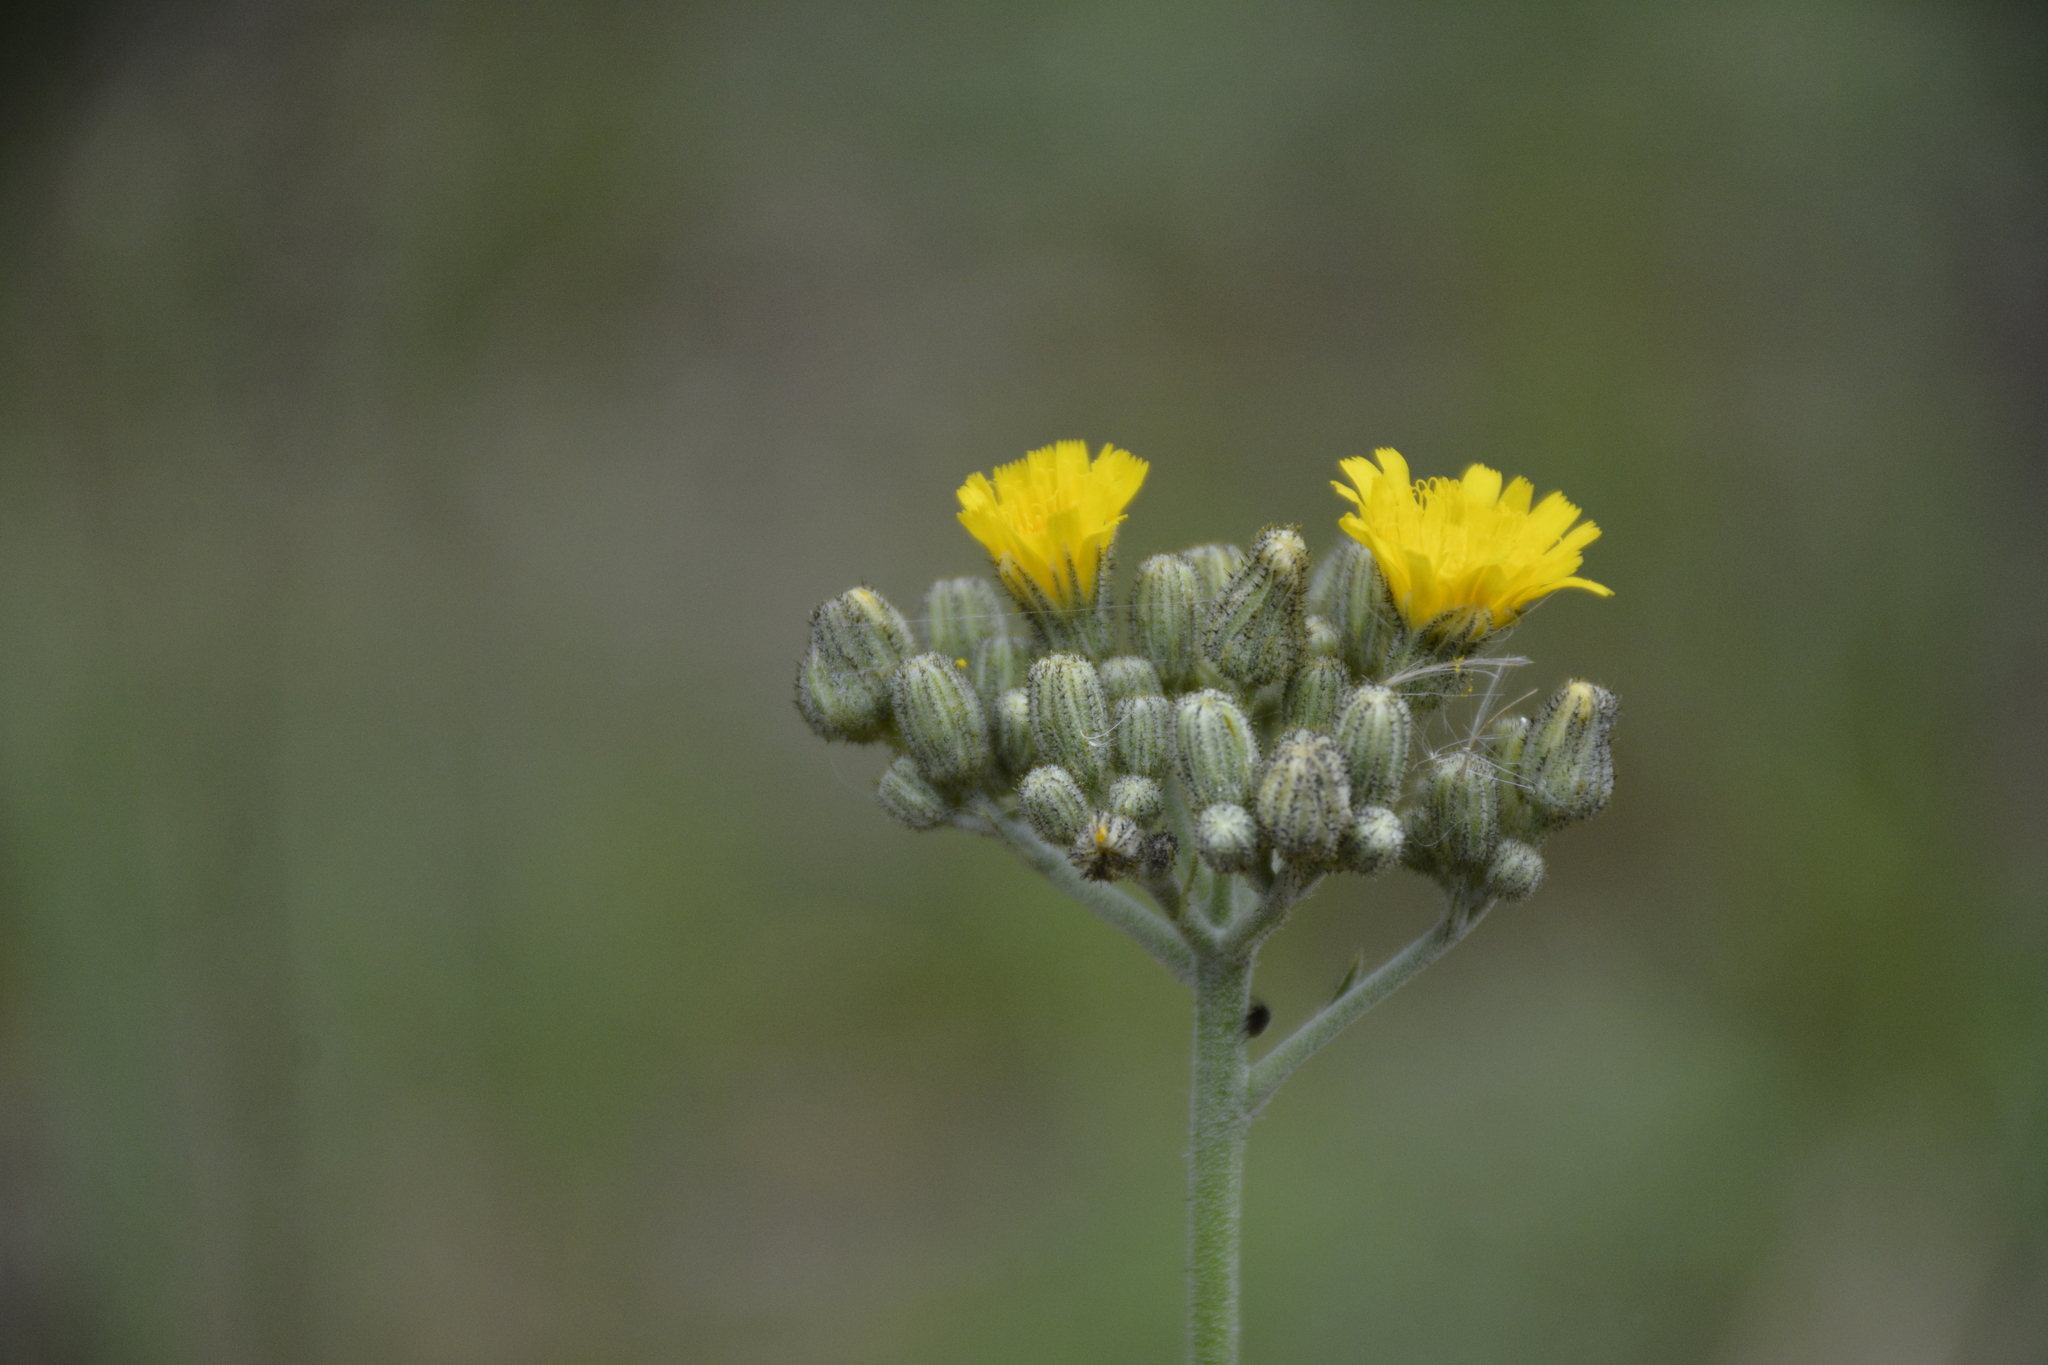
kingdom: Plantae
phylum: Tracheophyta
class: Magnoliopsida
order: Asterales
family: Asteraceae
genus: Pilosella
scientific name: Pilosella echioides
